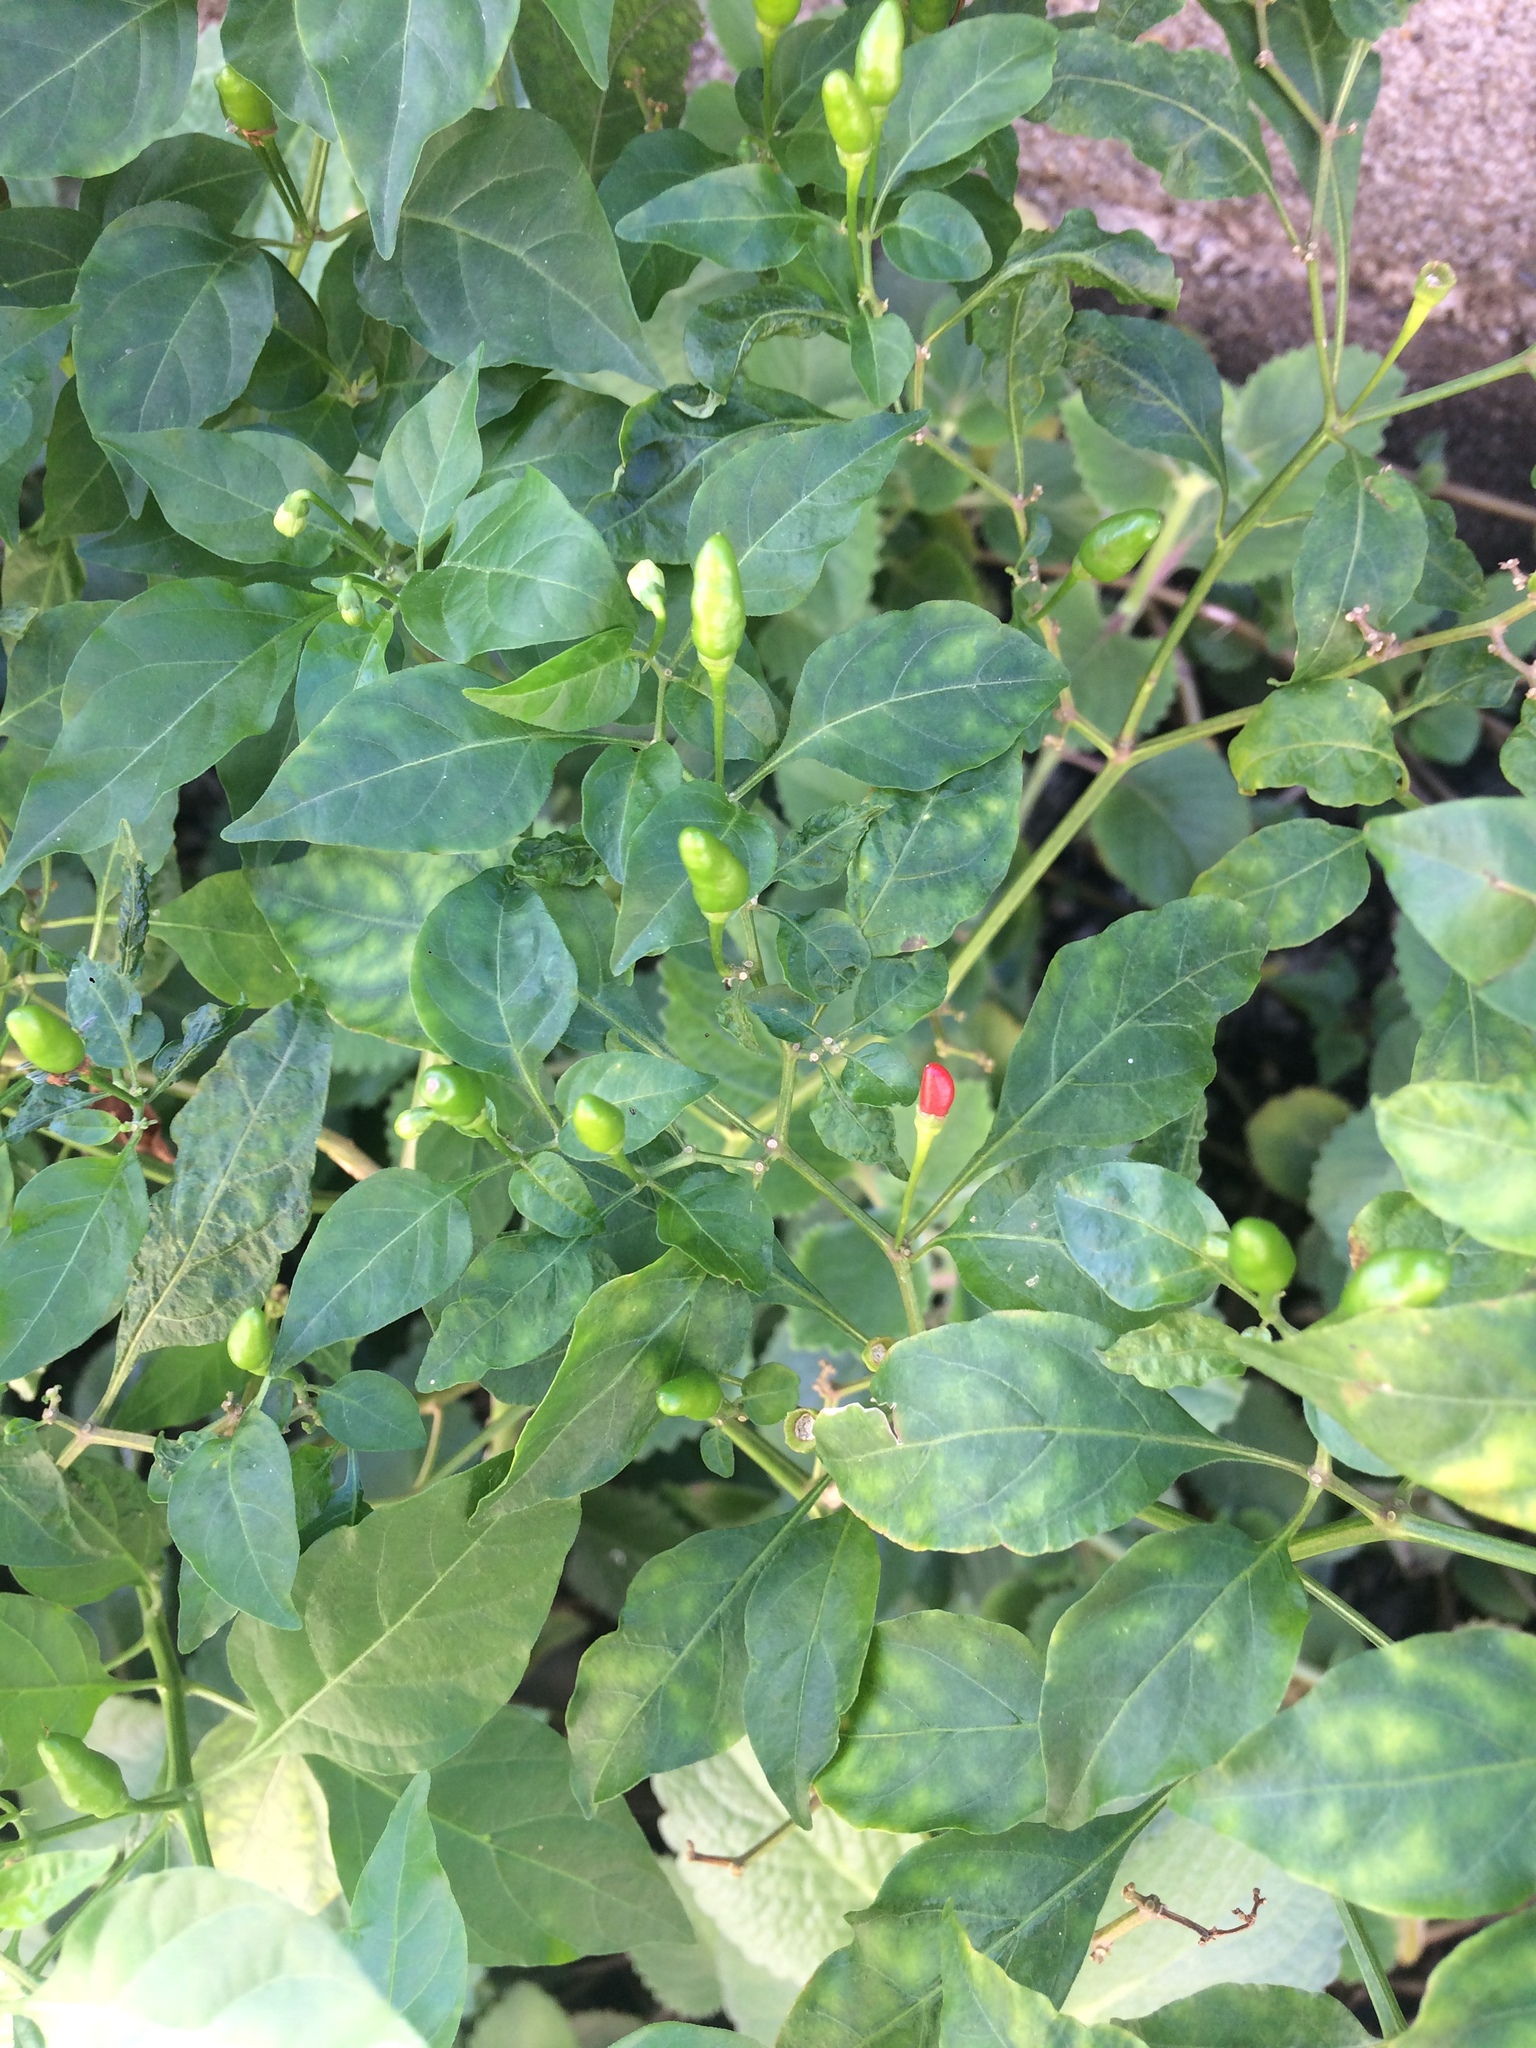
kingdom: Plantae
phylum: Tracheophyta
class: Magnoliopsida
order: Solanales
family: Solanaceae
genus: Capsicum
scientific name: Capsicum annuum
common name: Sweet pepper
